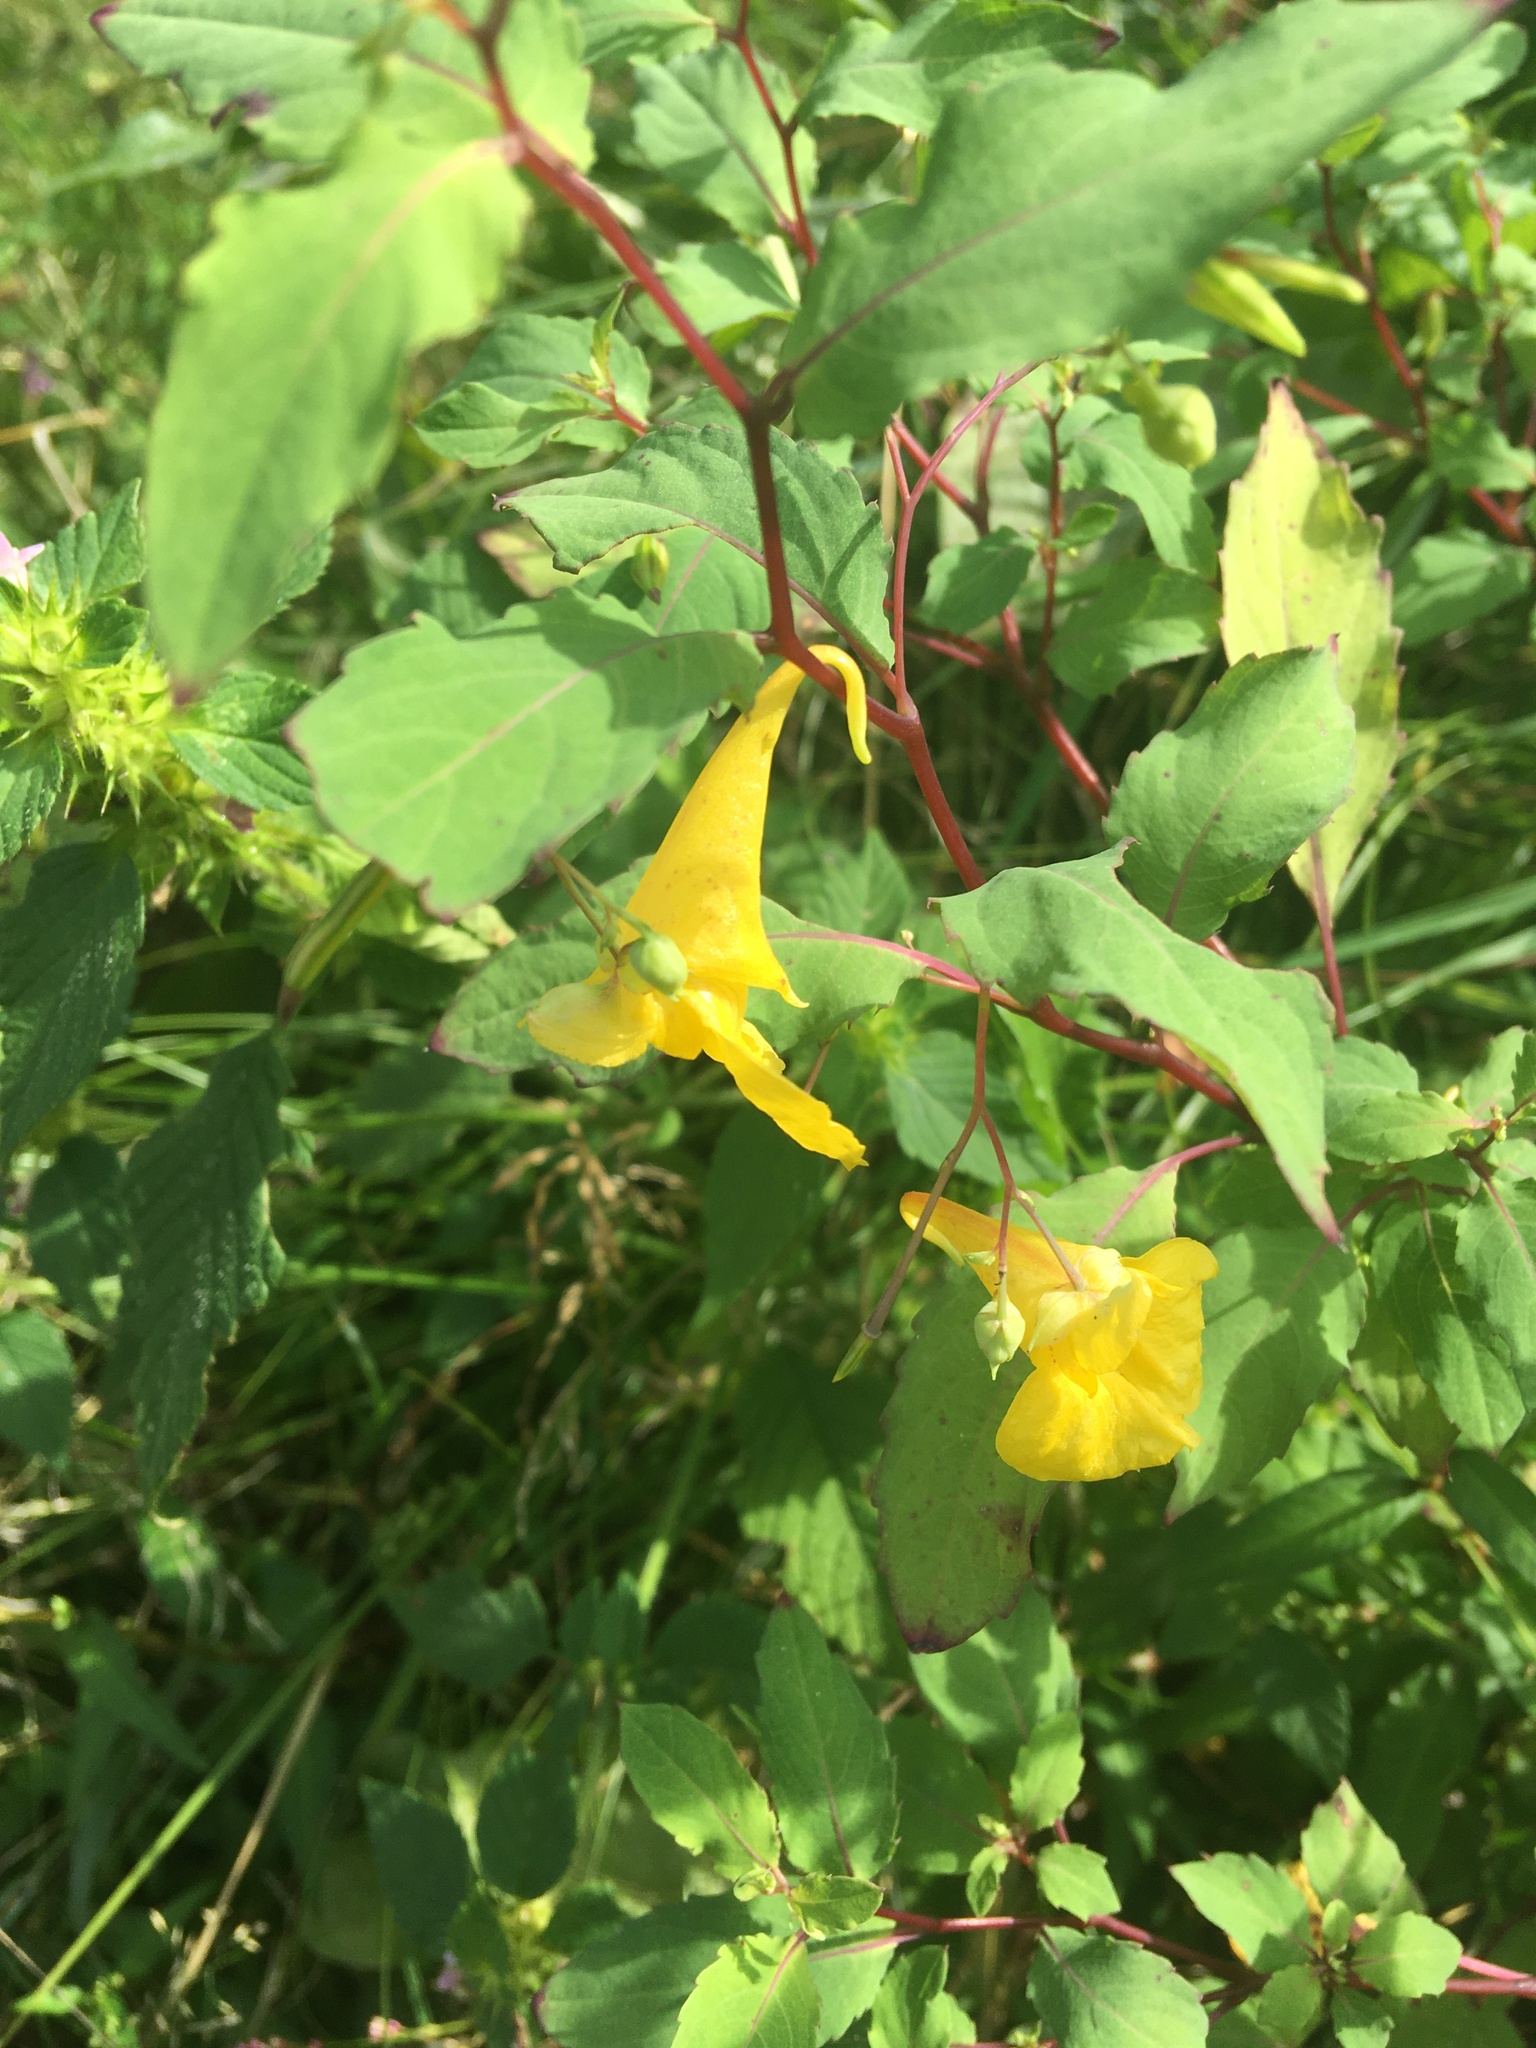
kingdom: Plantae
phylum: Tracheophyta
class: Magnoliopsida
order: Ericales
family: Balsaminaceae
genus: Impatiens
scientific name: Impatiens noli-tangere
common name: Touch-me-not balsam
